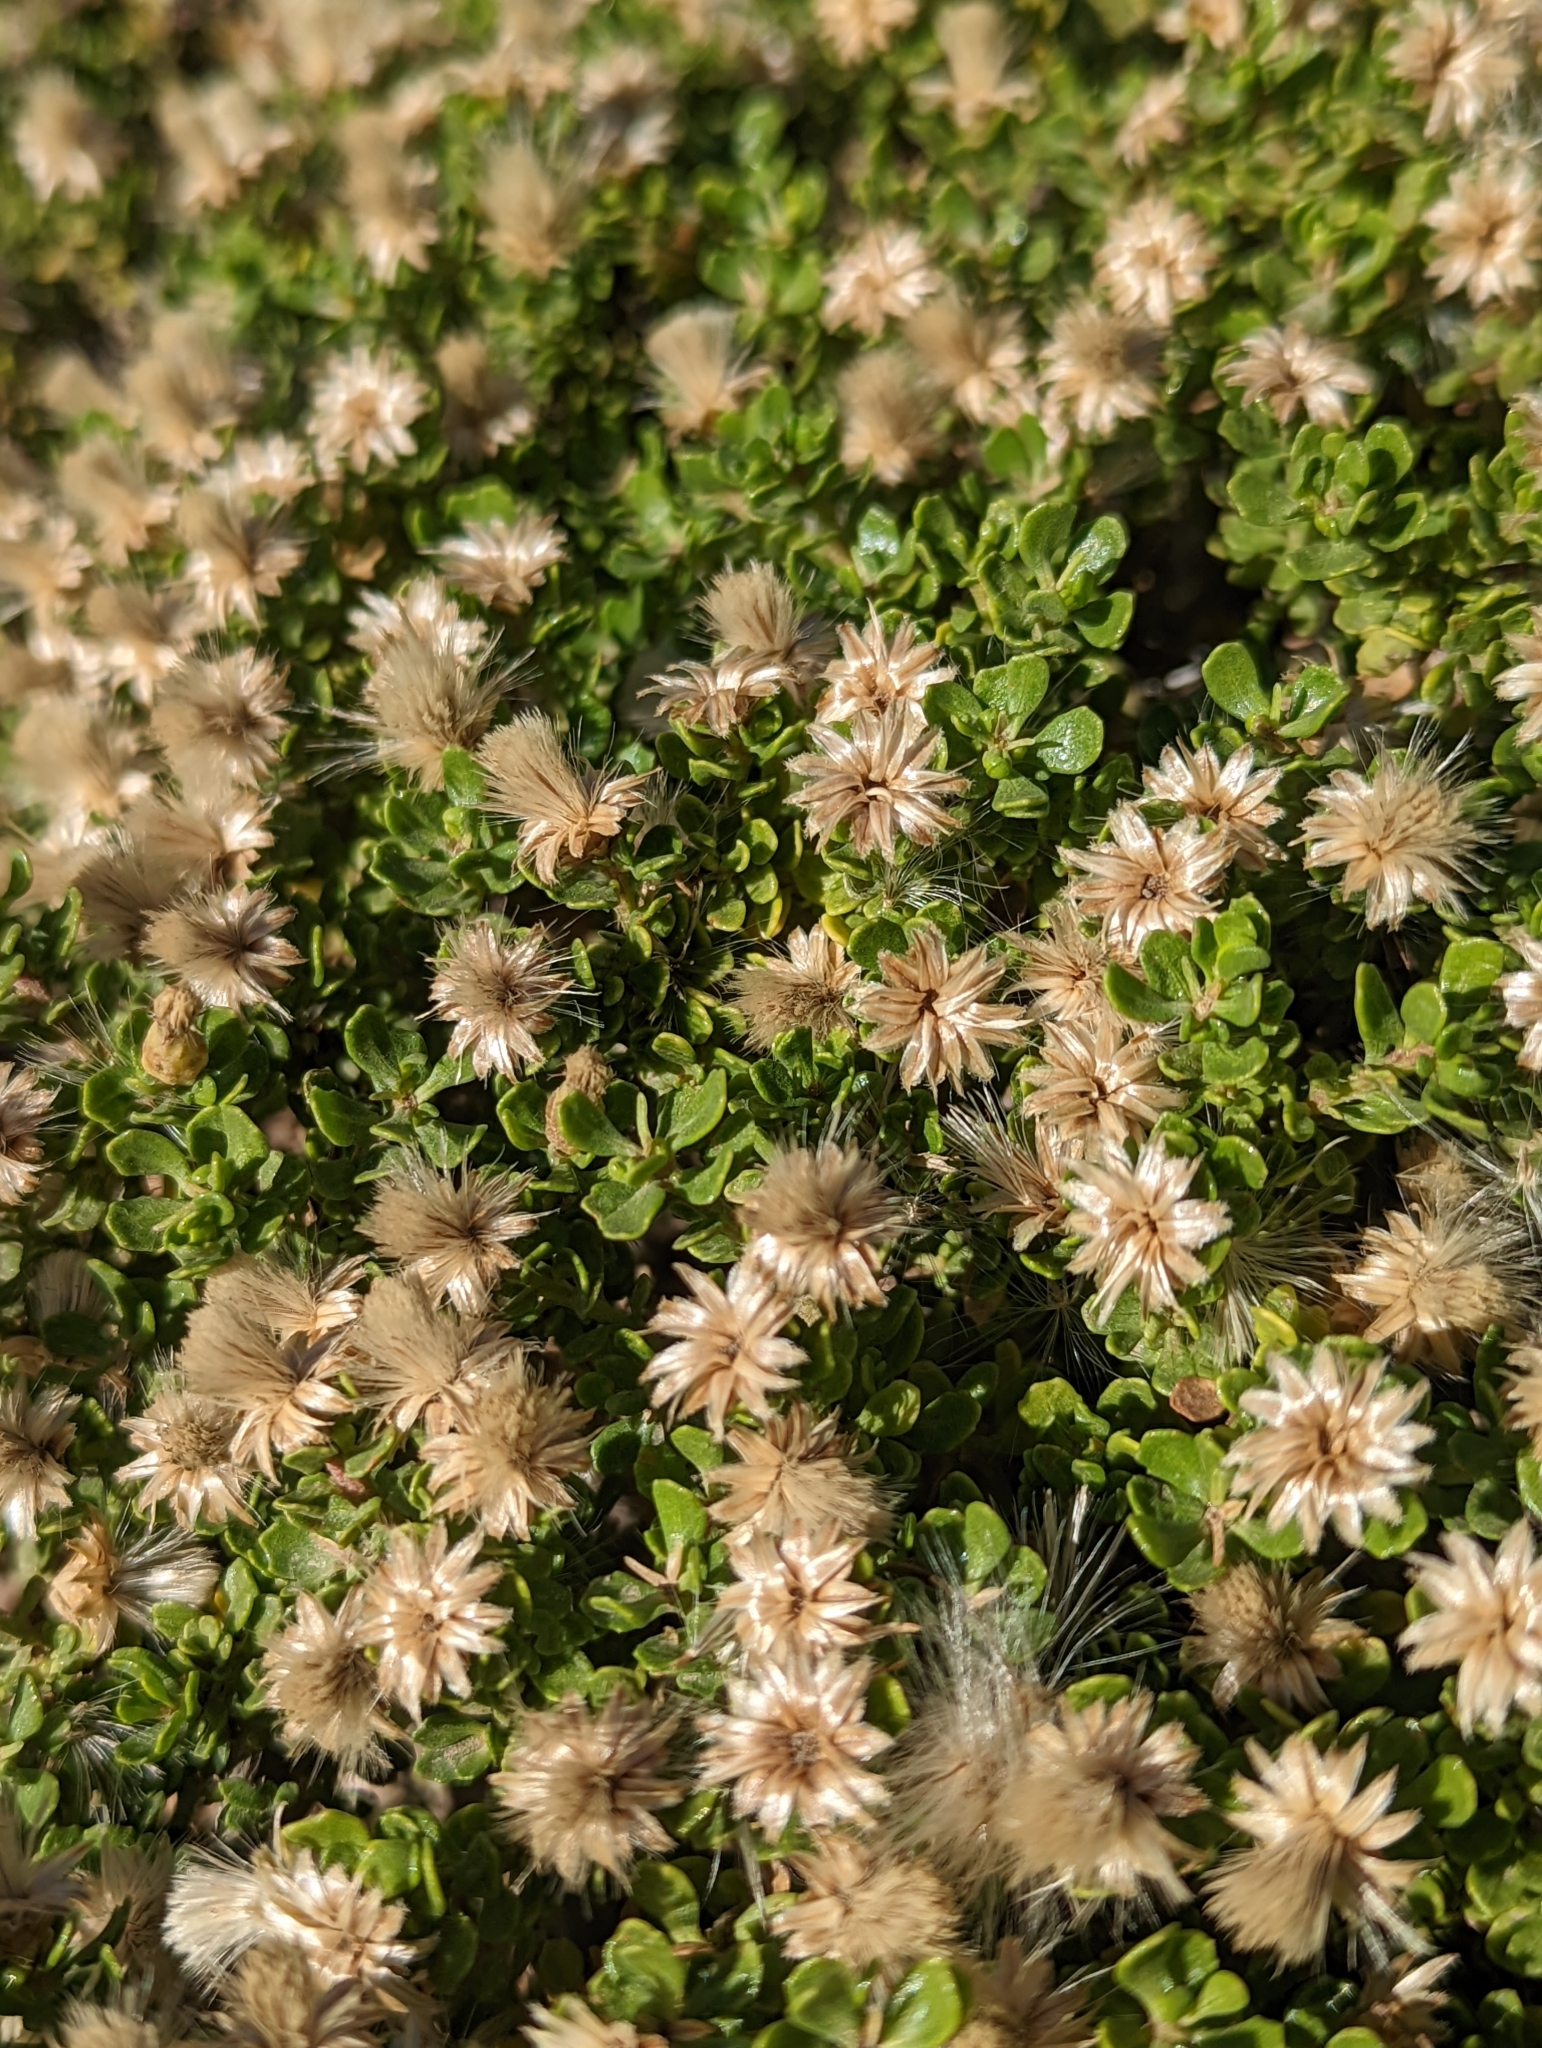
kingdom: Plantae
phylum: Tracheophyta
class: Magnoliopsida
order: Asterales
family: Asteraceae
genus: Baccharis
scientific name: Baccharis magellanica
